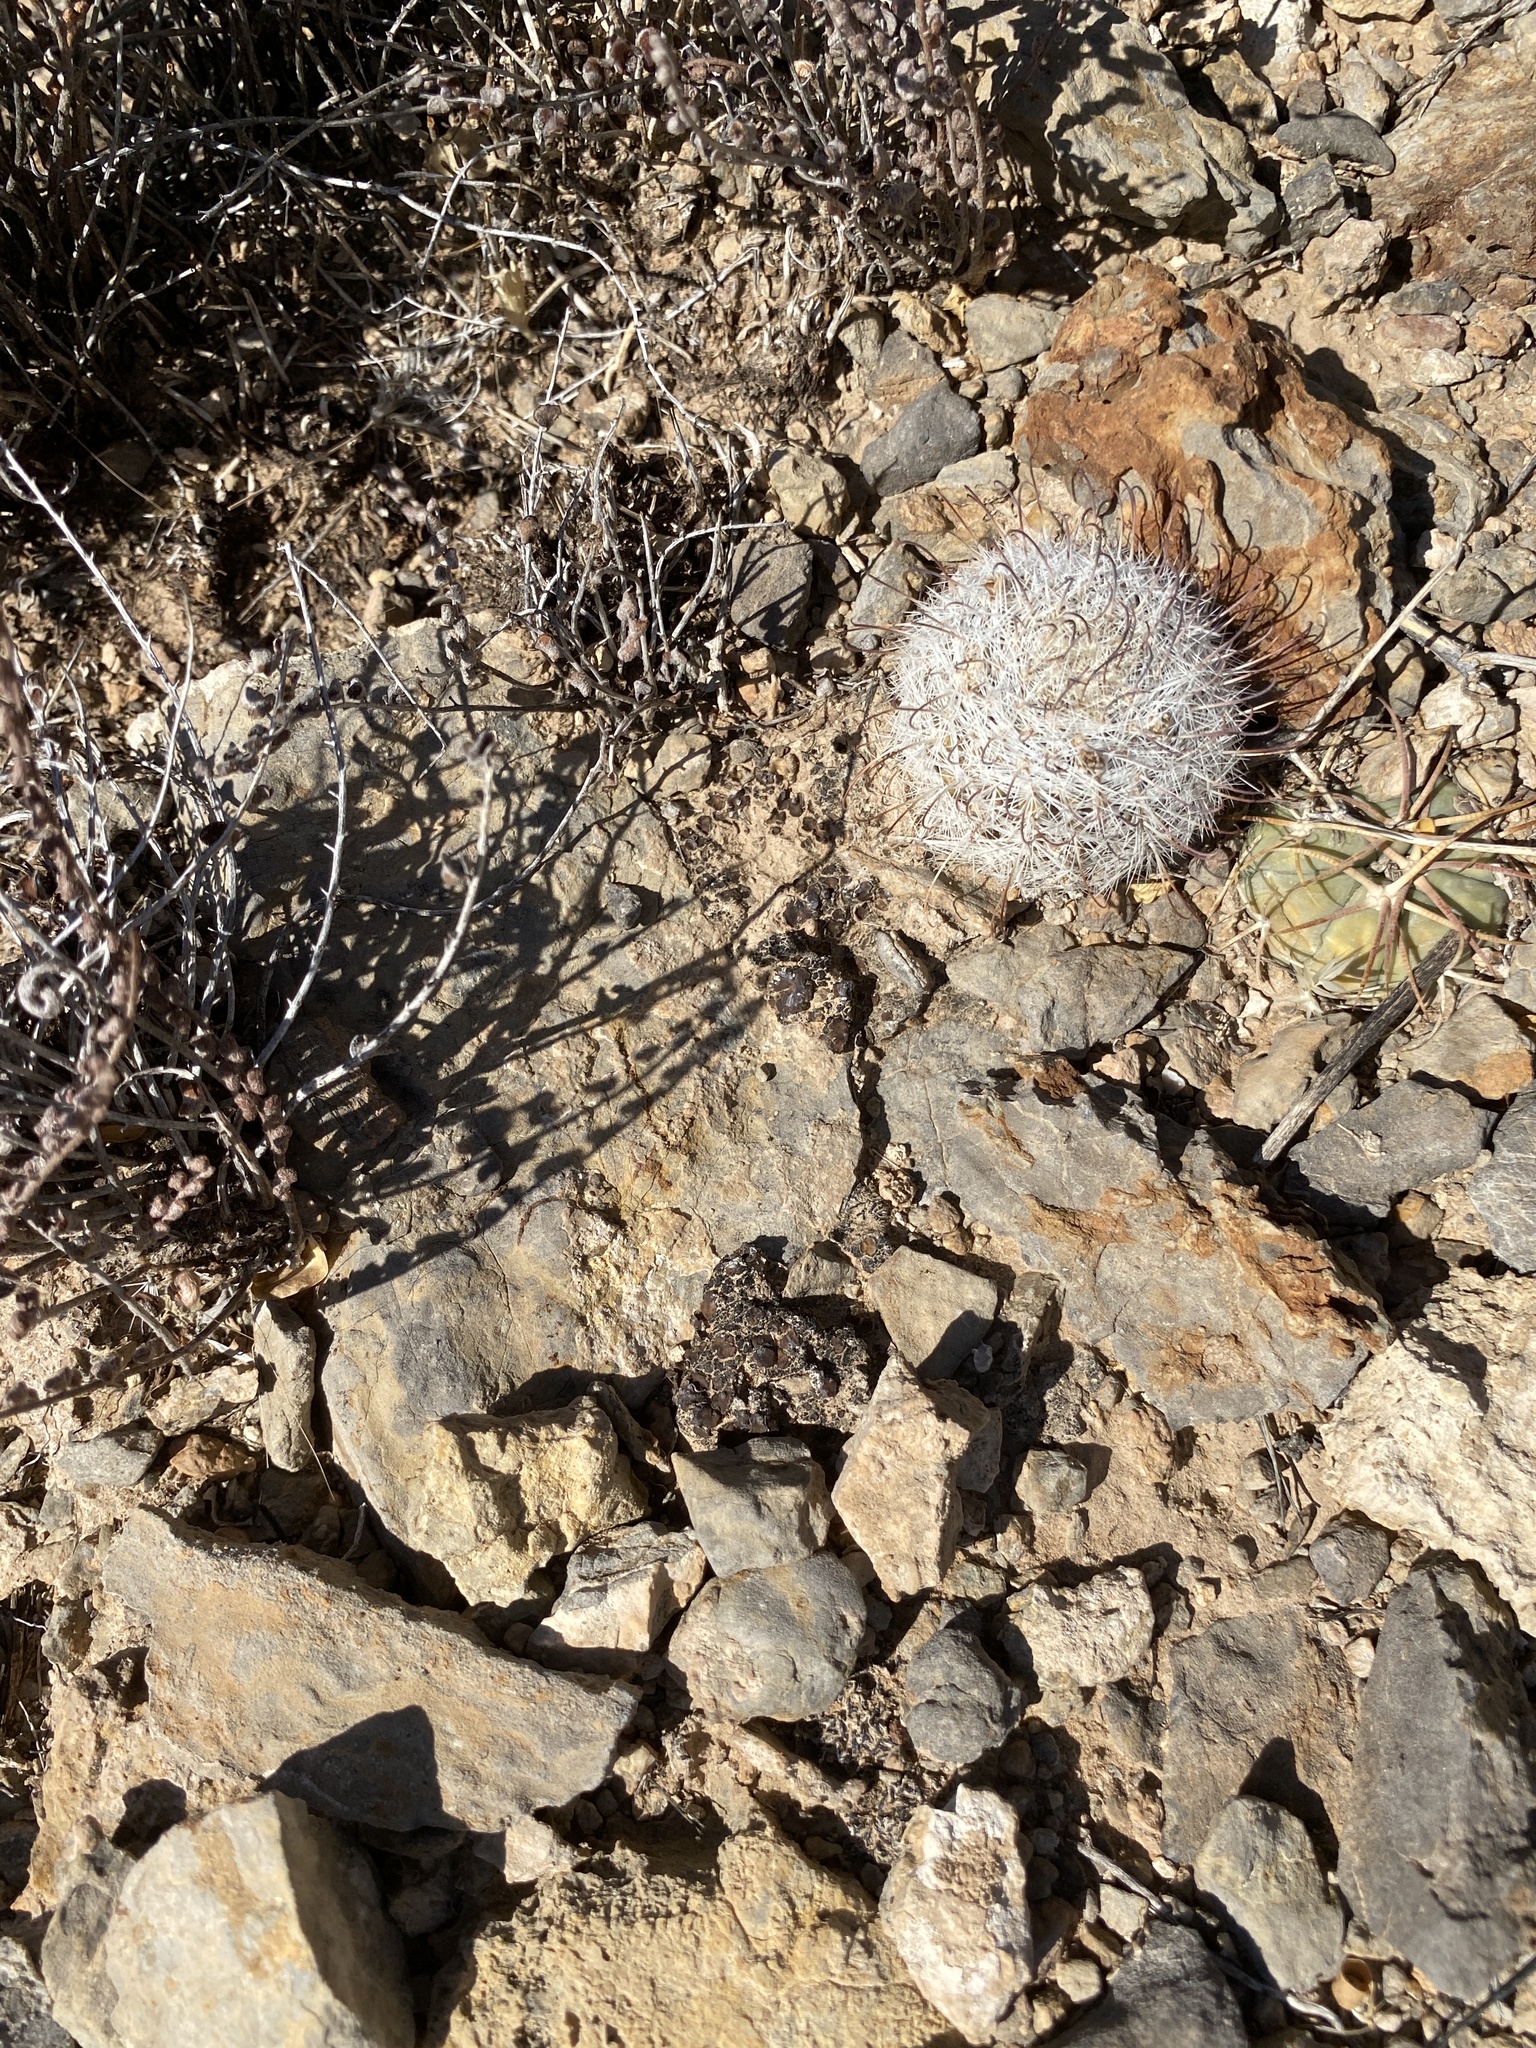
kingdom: Plantae
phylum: Tracheophyta
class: Magnoliopsida
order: Caryophyllales
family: Cactaceae
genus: Cochemiea
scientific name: Cochemiea grahamii
